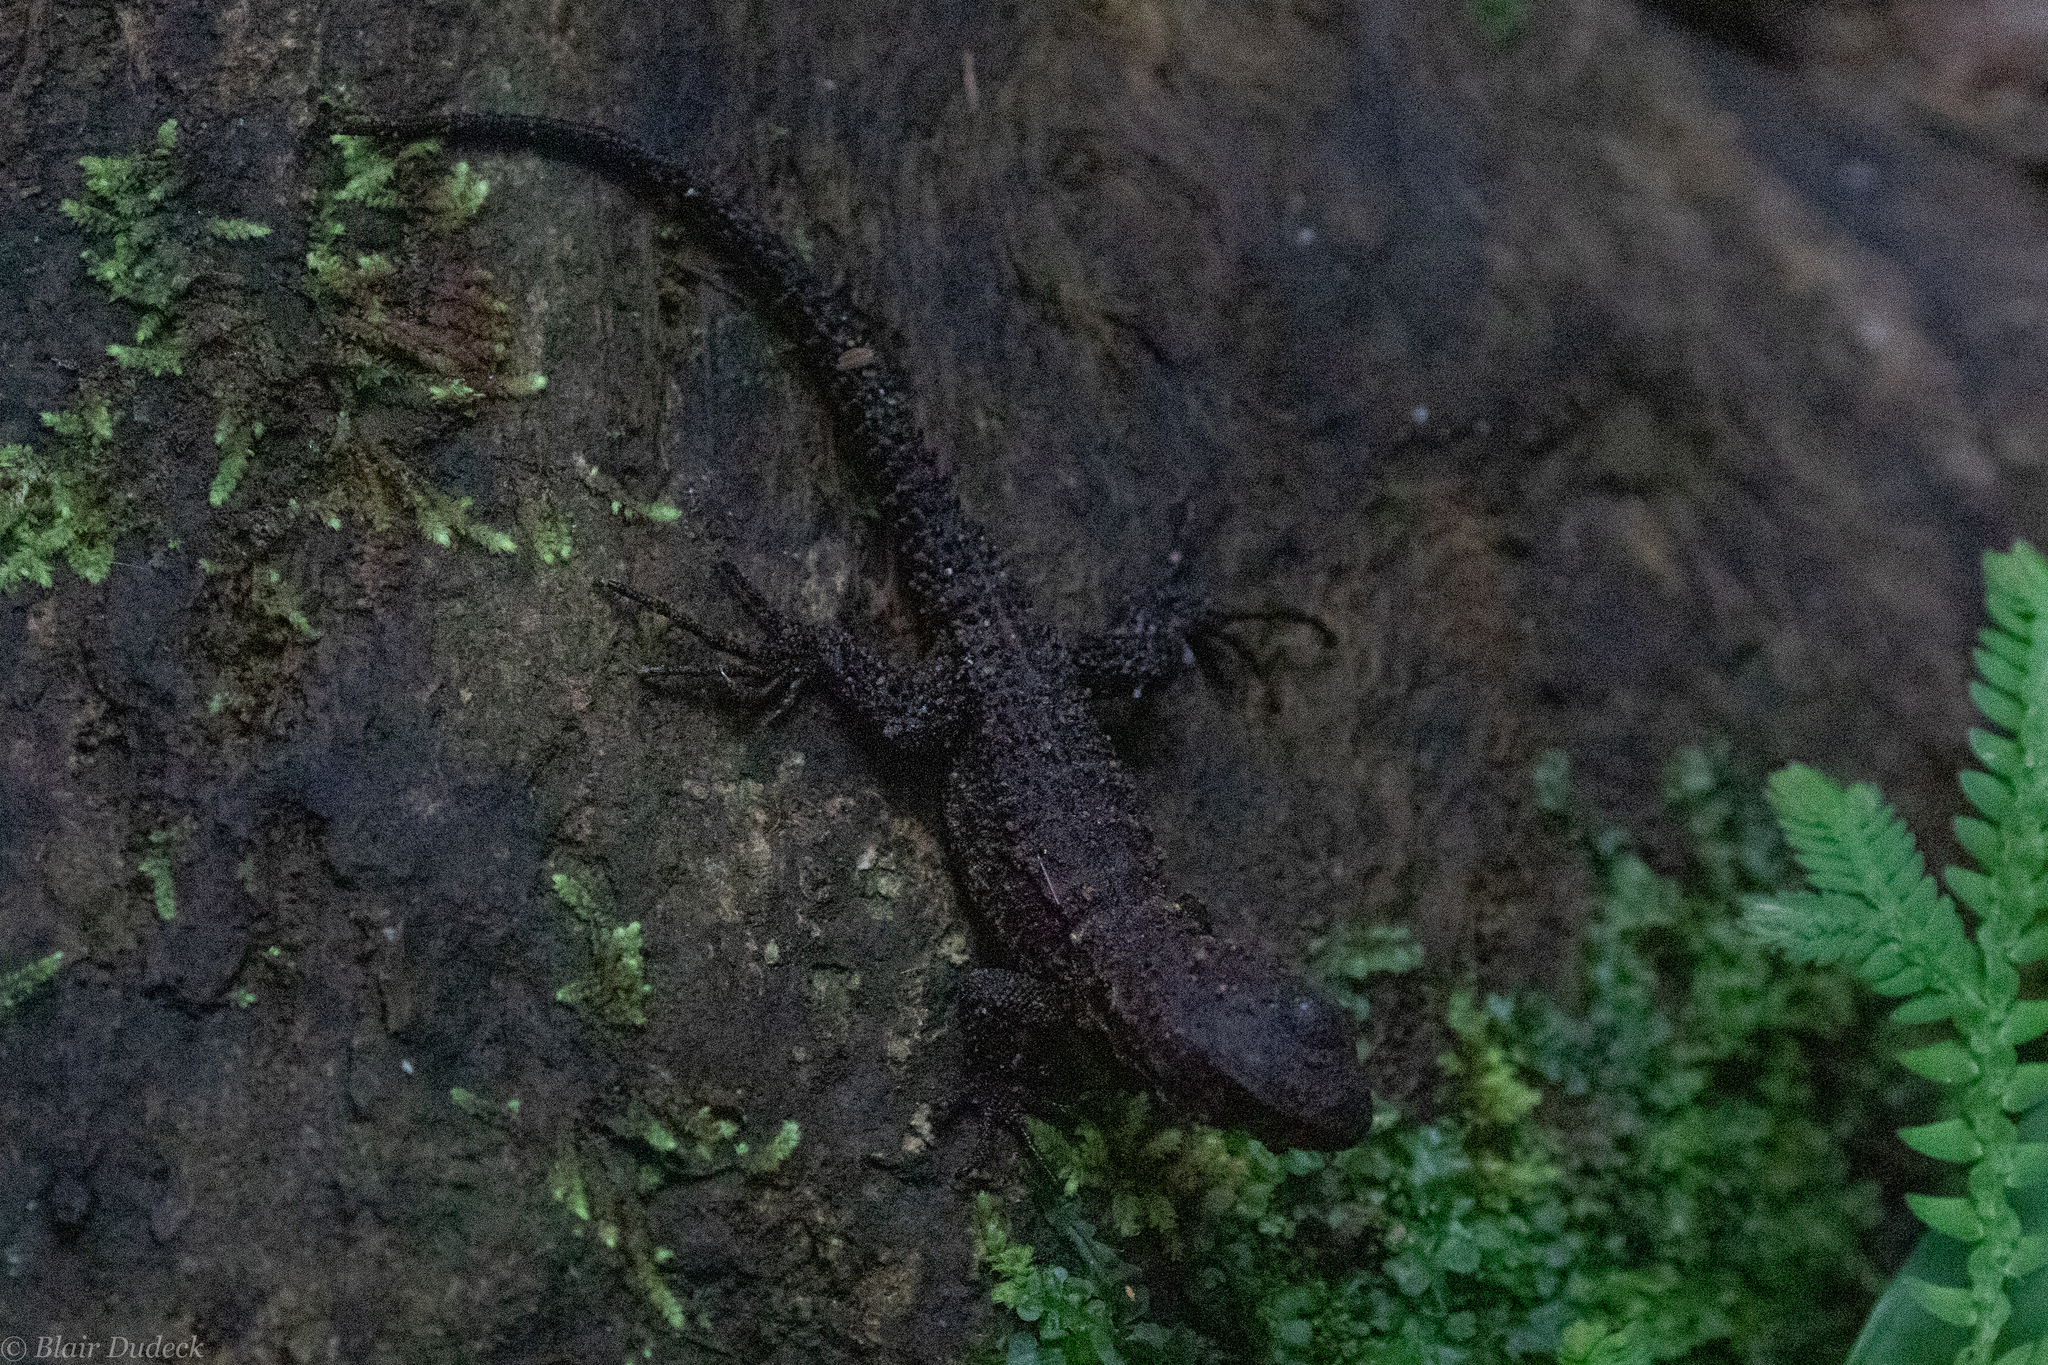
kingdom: Animalia
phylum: Chordata
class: Squamata
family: Hoplocercidae
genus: Enyalioides
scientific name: Enyalioides
